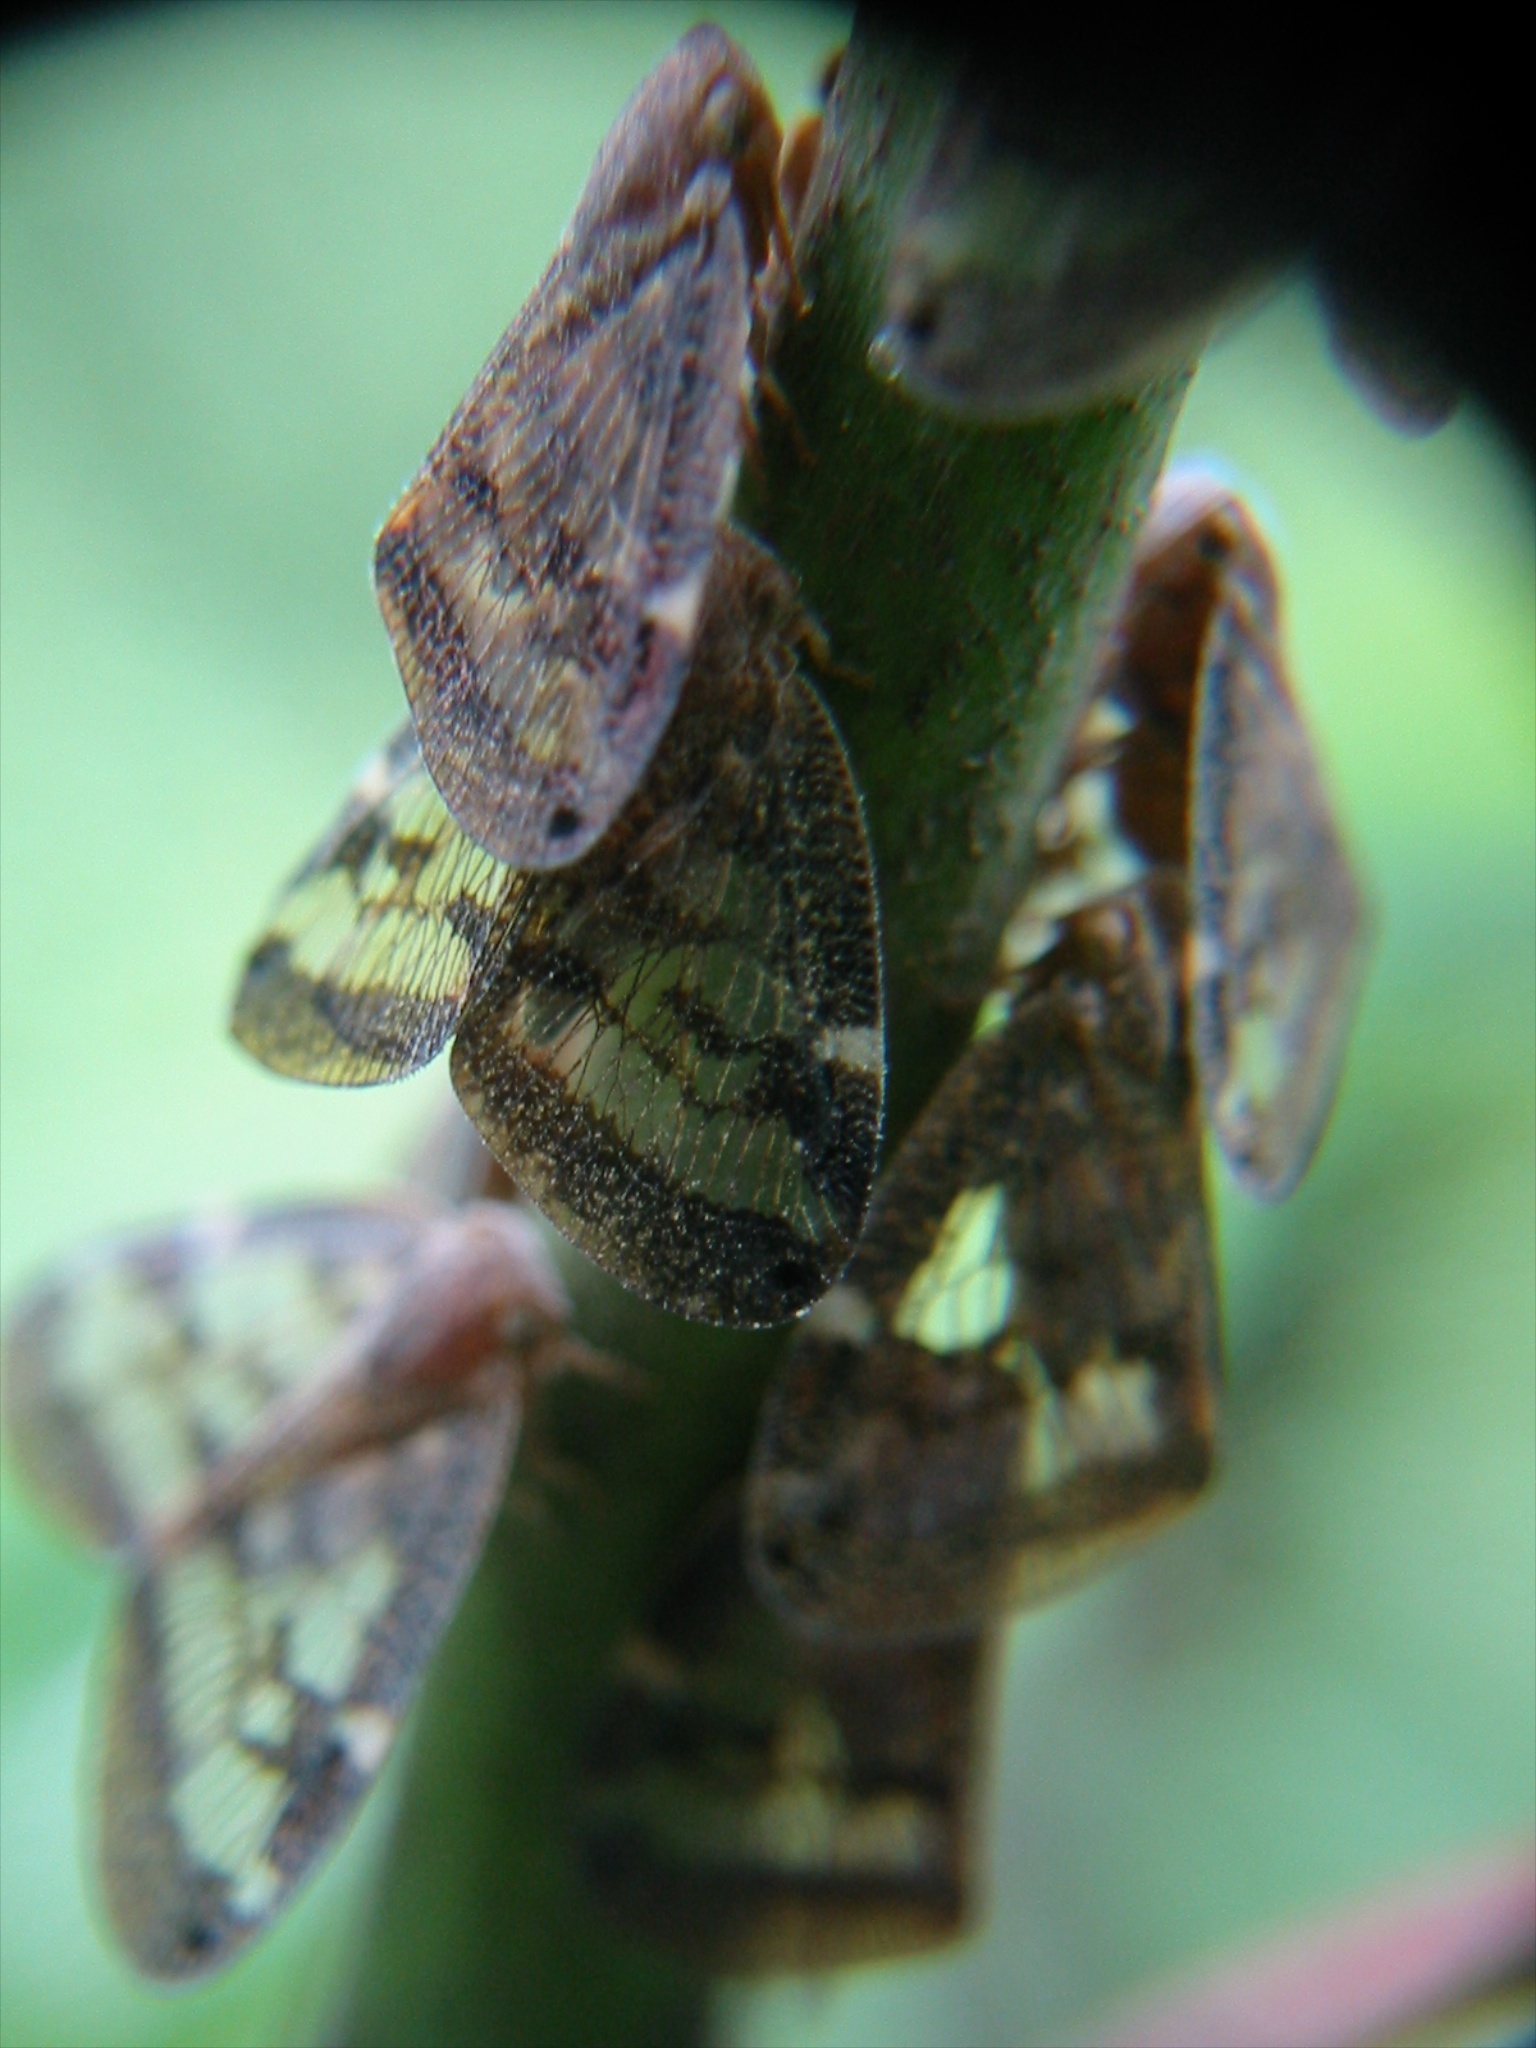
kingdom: Animalia
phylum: Arthropoda
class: Insecta
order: Hemiptera
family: Ricaniidae
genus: Scolypopa
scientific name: Scolypopa australis
